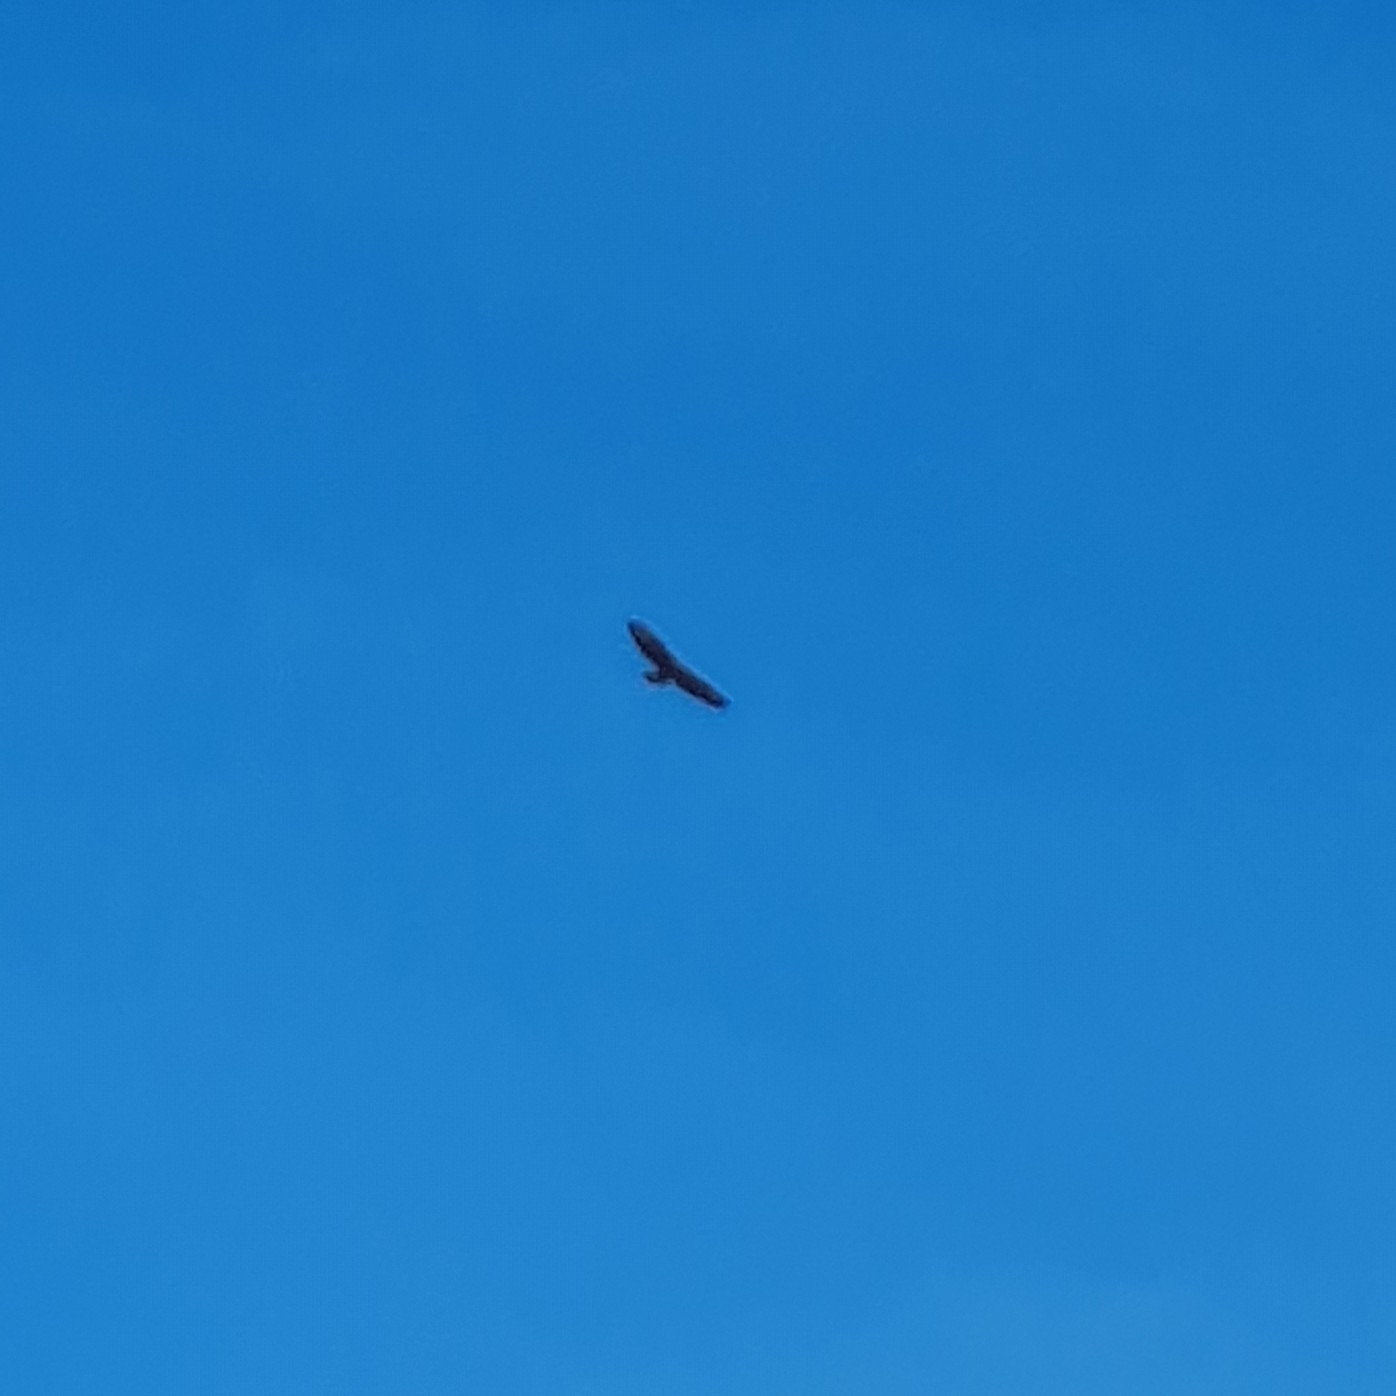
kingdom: Animalia
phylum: Chordata
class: Aves
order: Accipitriformes
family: Accipitridae
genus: Buteo
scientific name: Buteo buteo
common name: Common buzzard
